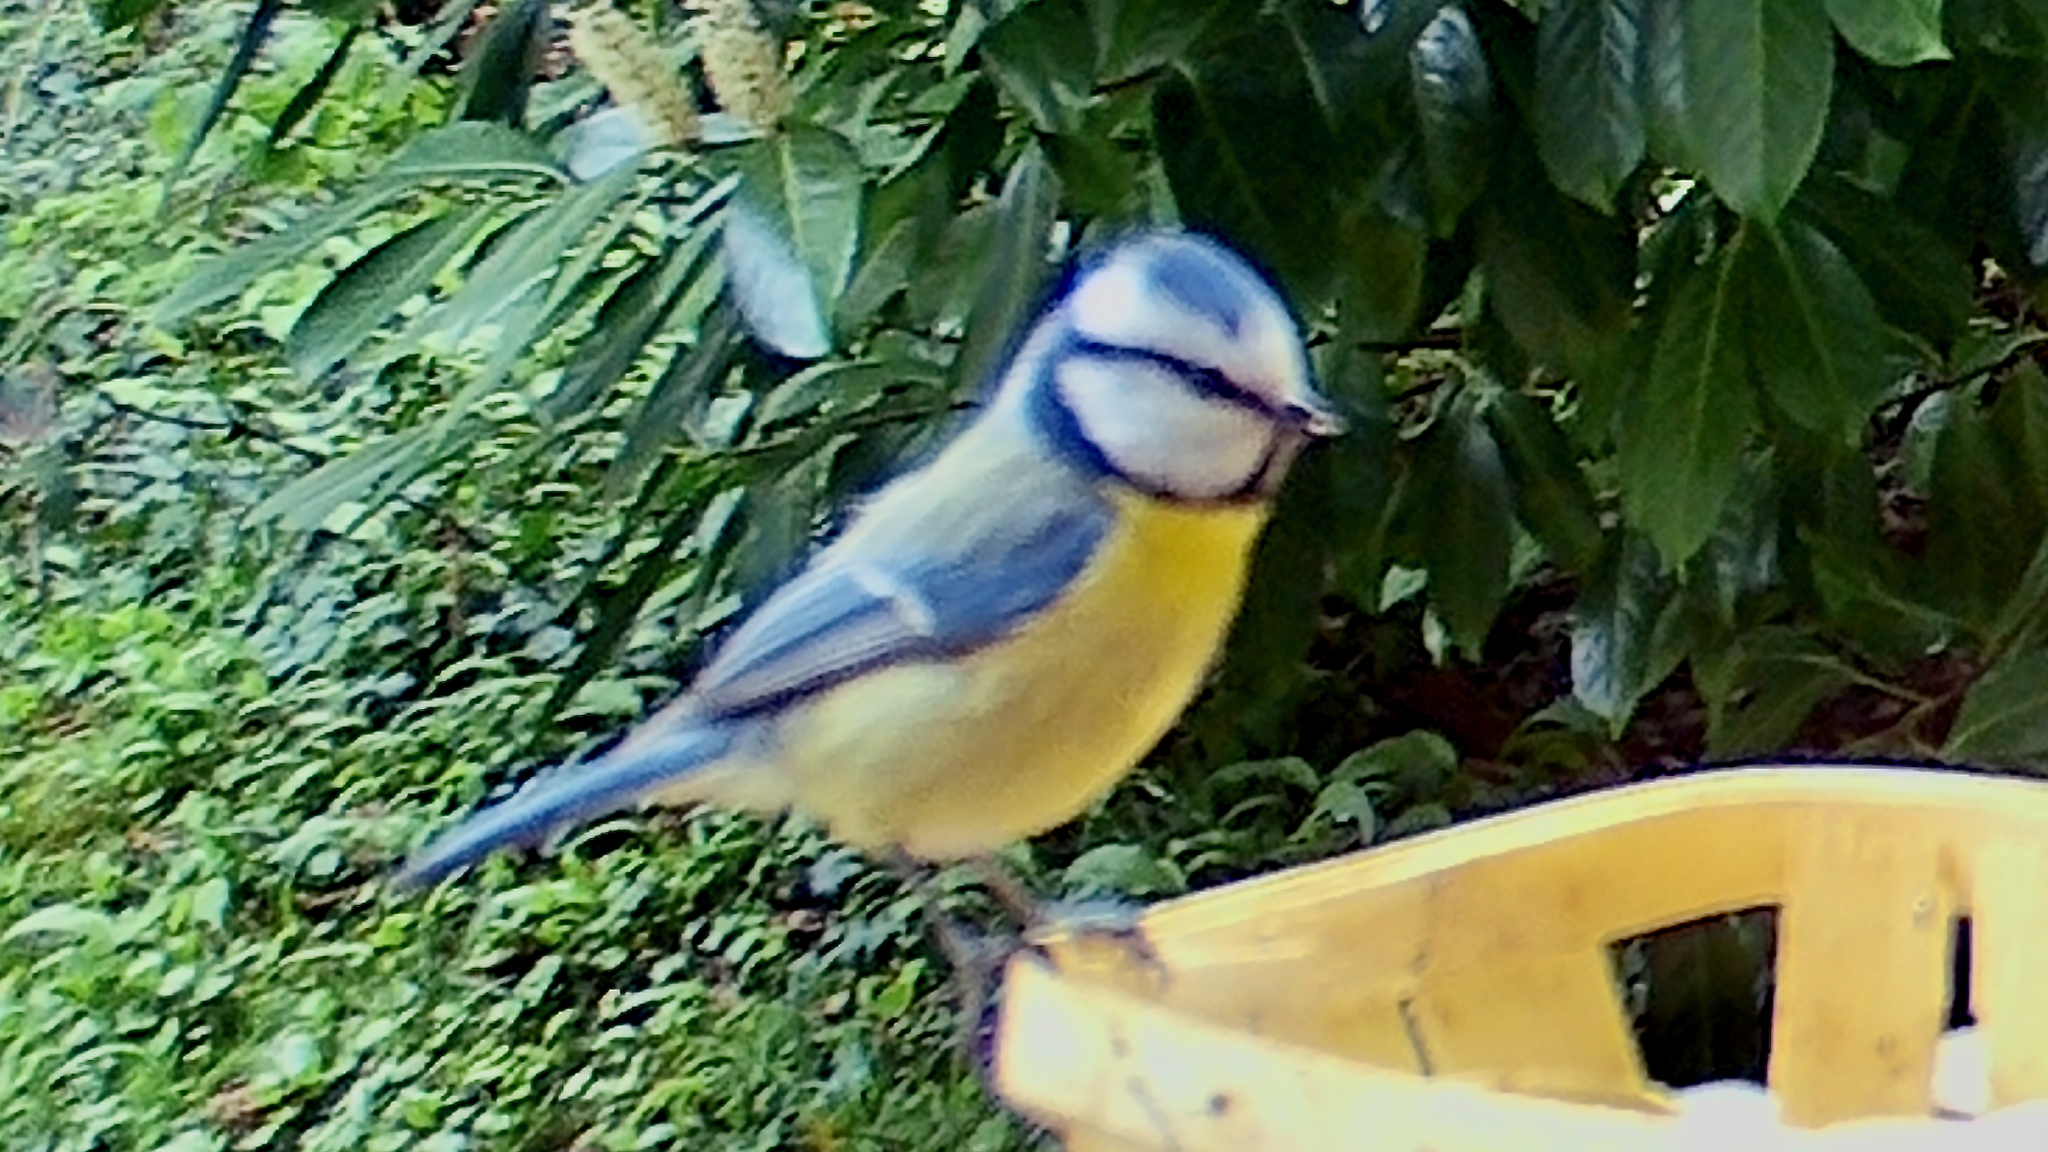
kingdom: Animalia
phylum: Chordata
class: Aves
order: Passeriformes
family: Paridae
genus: Cyanistes
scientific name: Cyanistes caeruleus
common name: Eurasian blue tit
